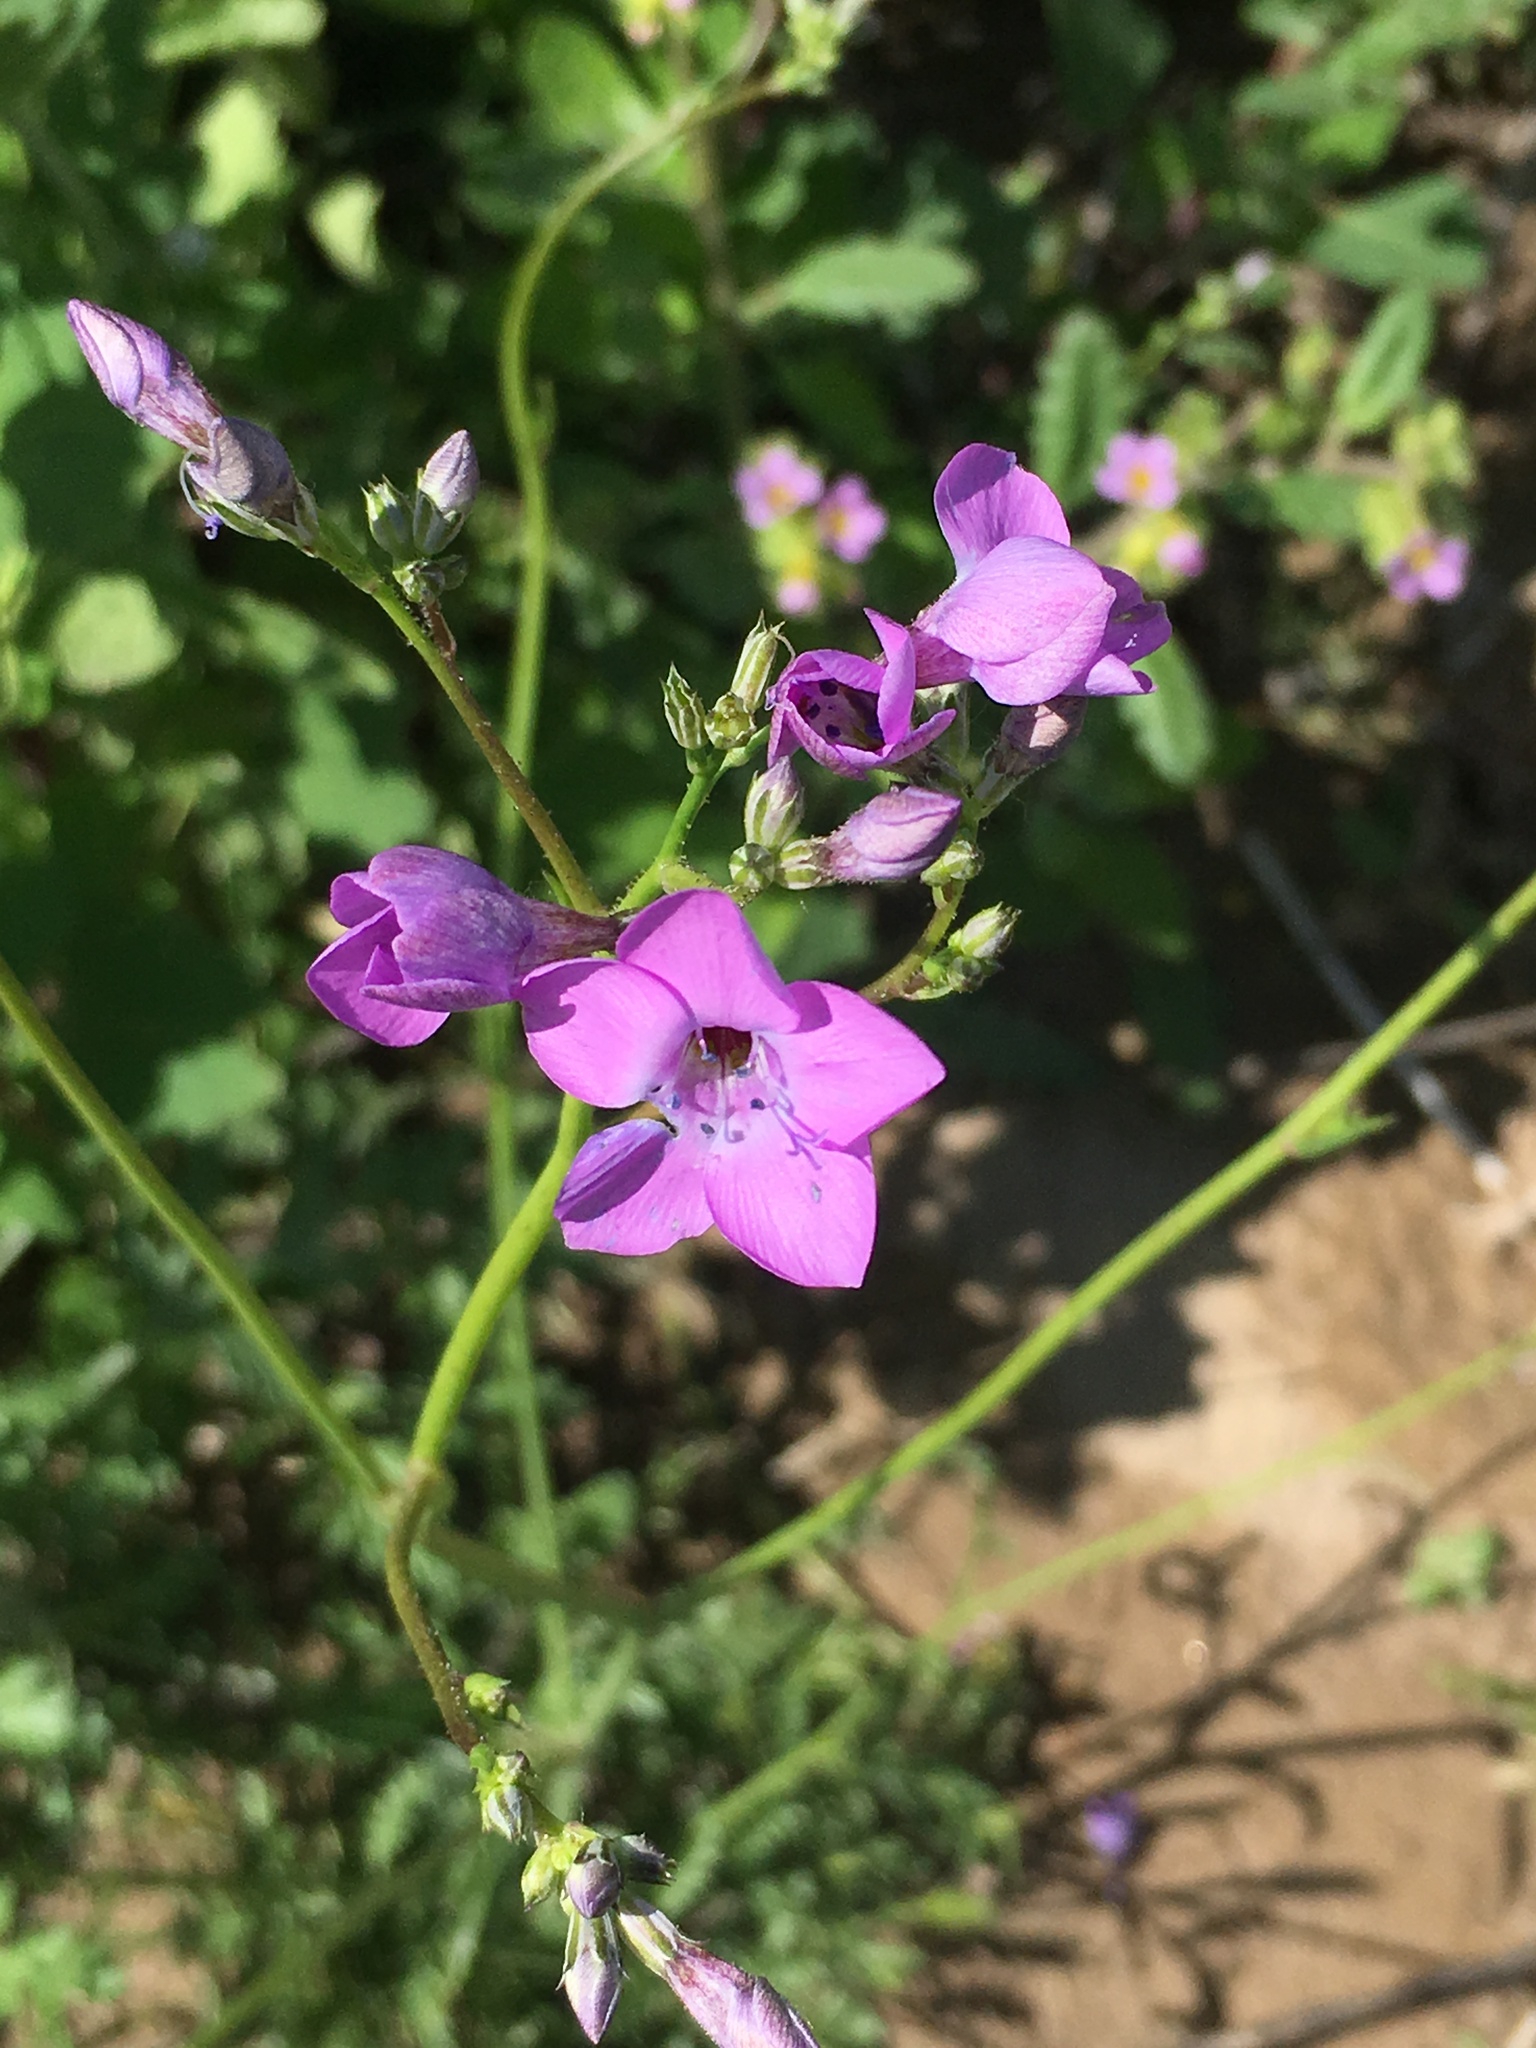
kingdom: Plantae
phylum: Tracheophyta
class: Magnoliopsida
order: Ericales
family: Polemoniaceae
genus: Saltugilia
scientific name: Saltugilia splendens
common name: Grinnell's gilia
